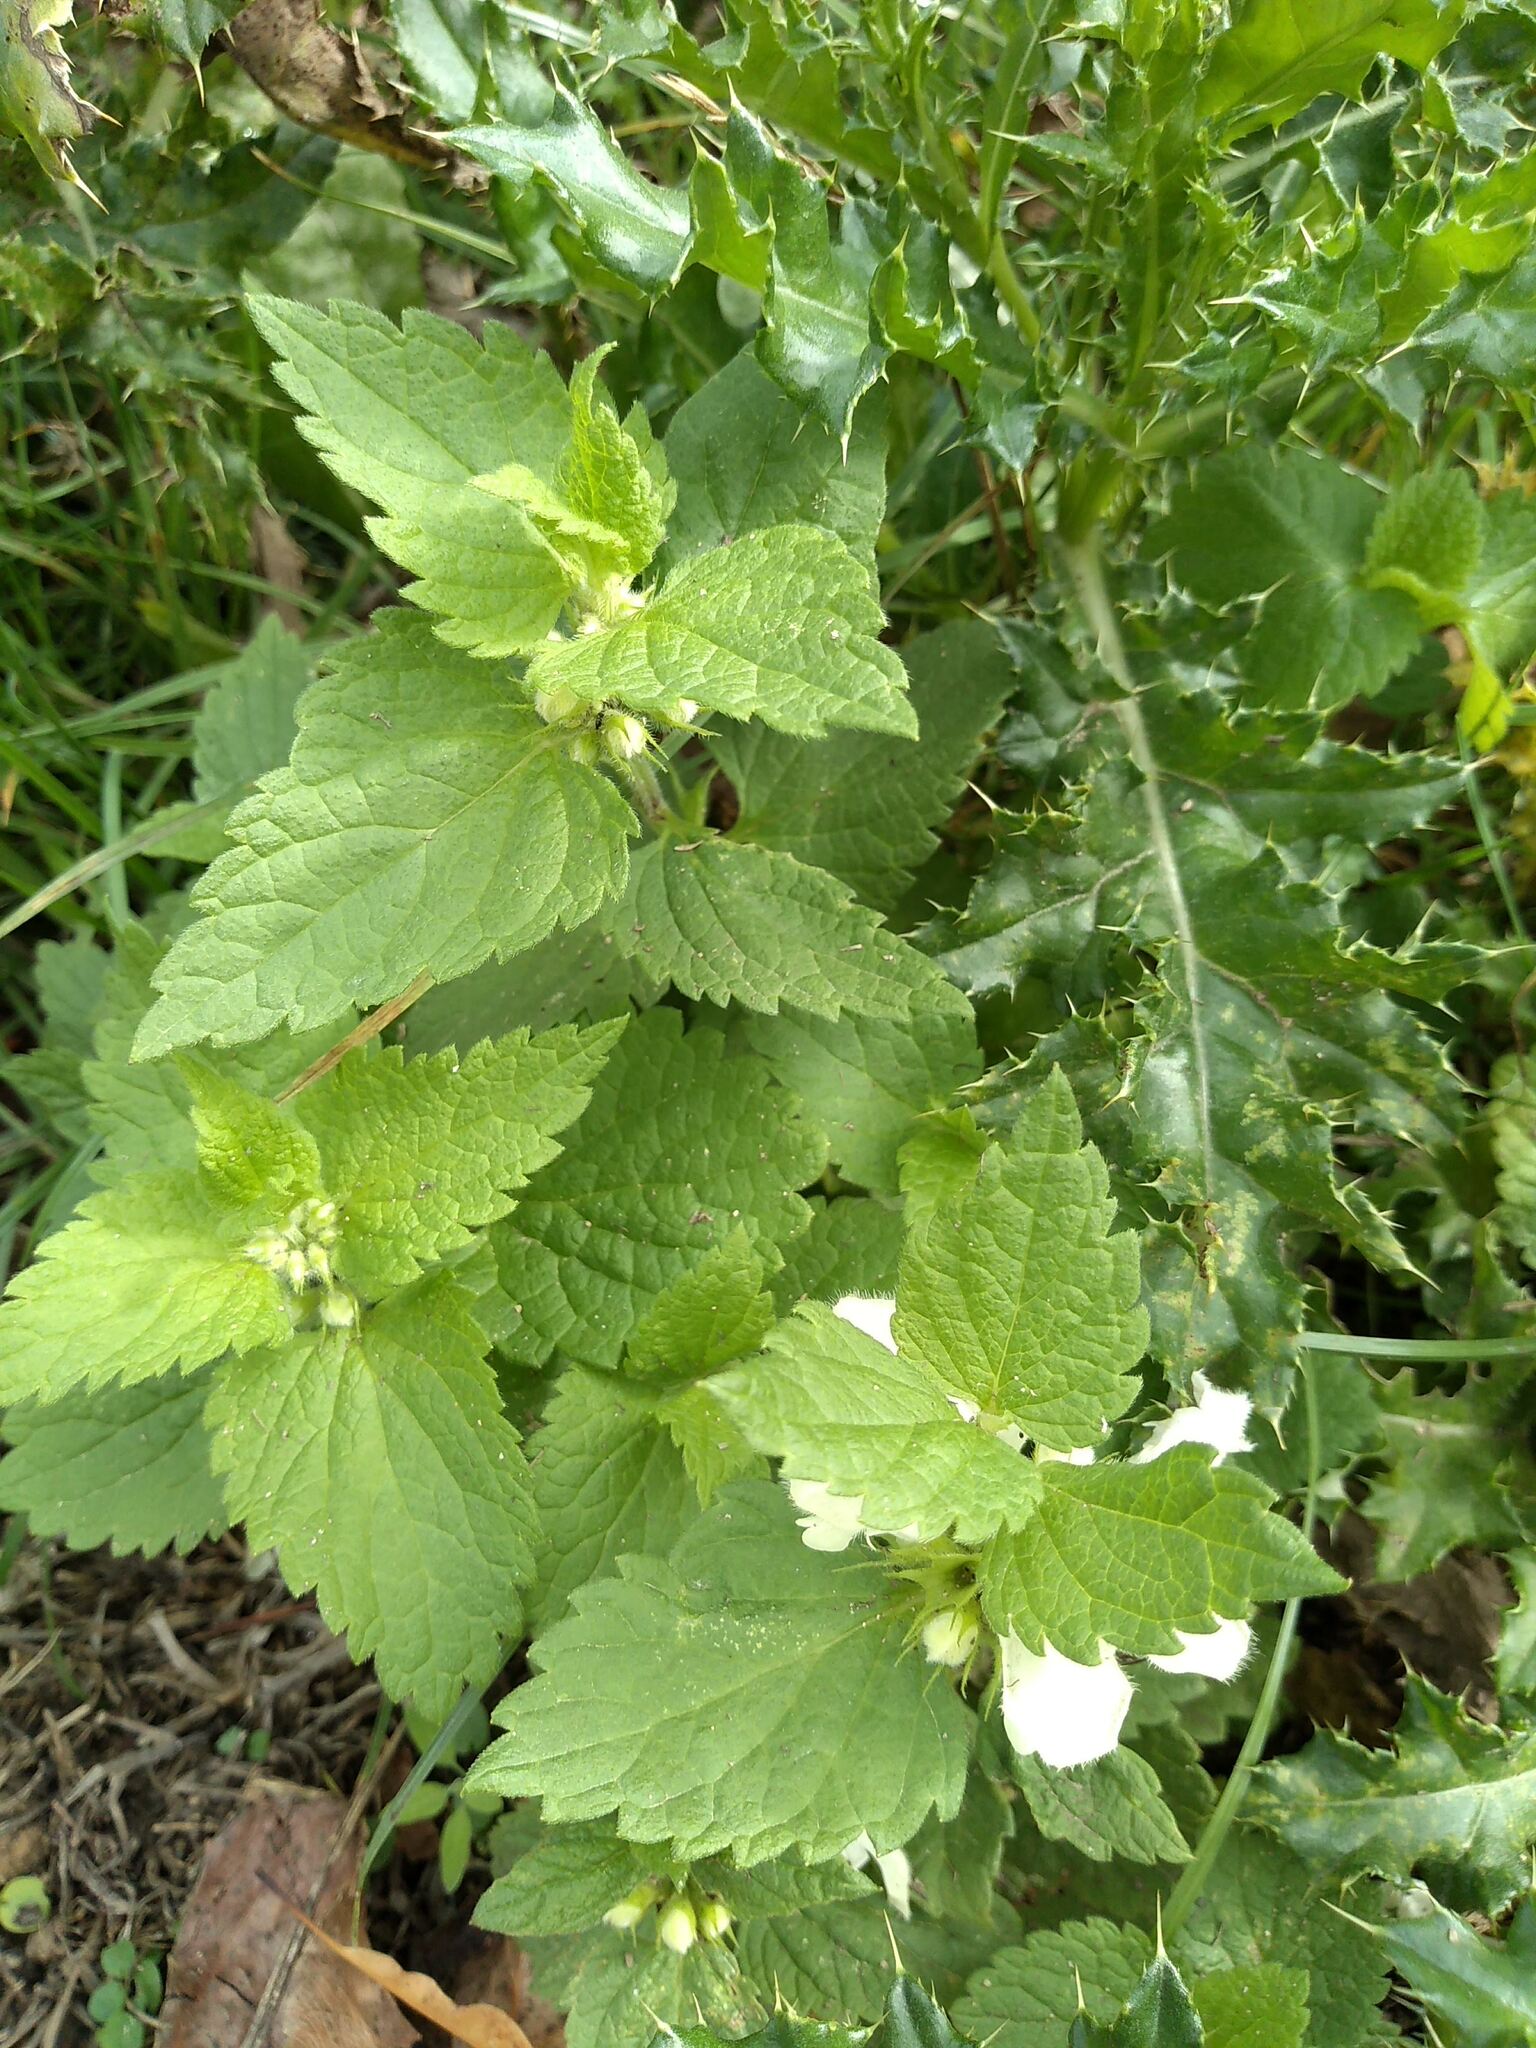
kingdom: Plantae
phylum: Tracheophyta
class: Magnoliopsida
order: Lamiales
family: Lamiaceae
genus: Lamium
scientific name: Lamium album
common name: White dead-nettle
